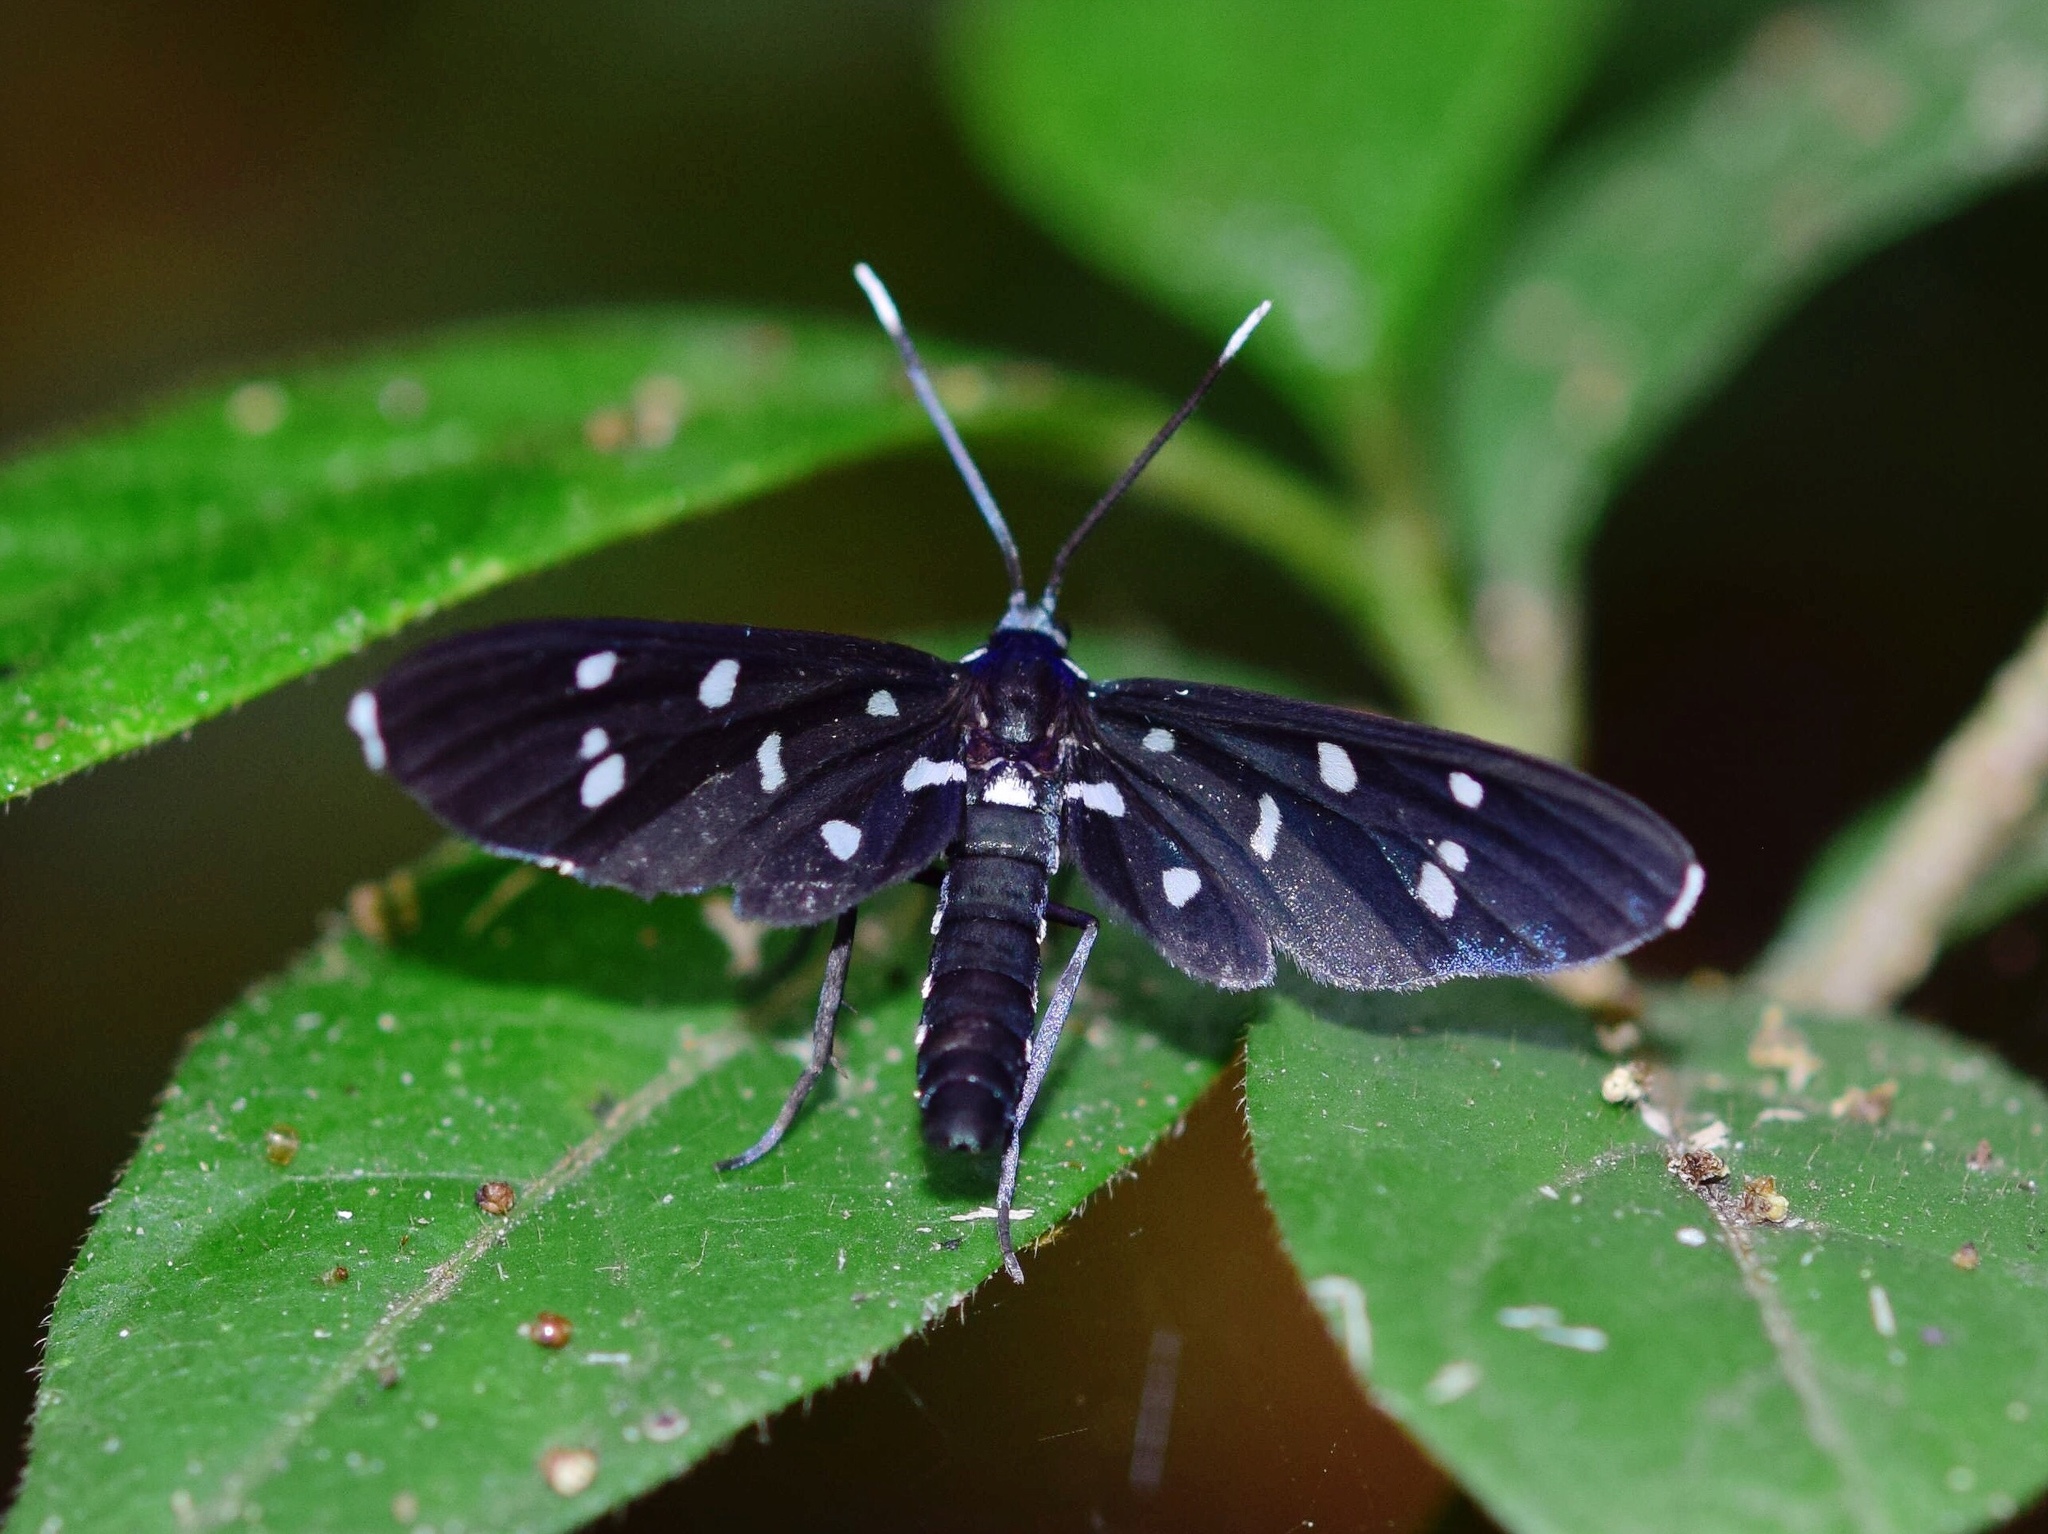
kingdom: Animalia
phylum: Arthropoda
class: Insecta
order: Lepidoptera
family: Erebidae
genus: Ceryx
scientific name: Ceryx longipes
